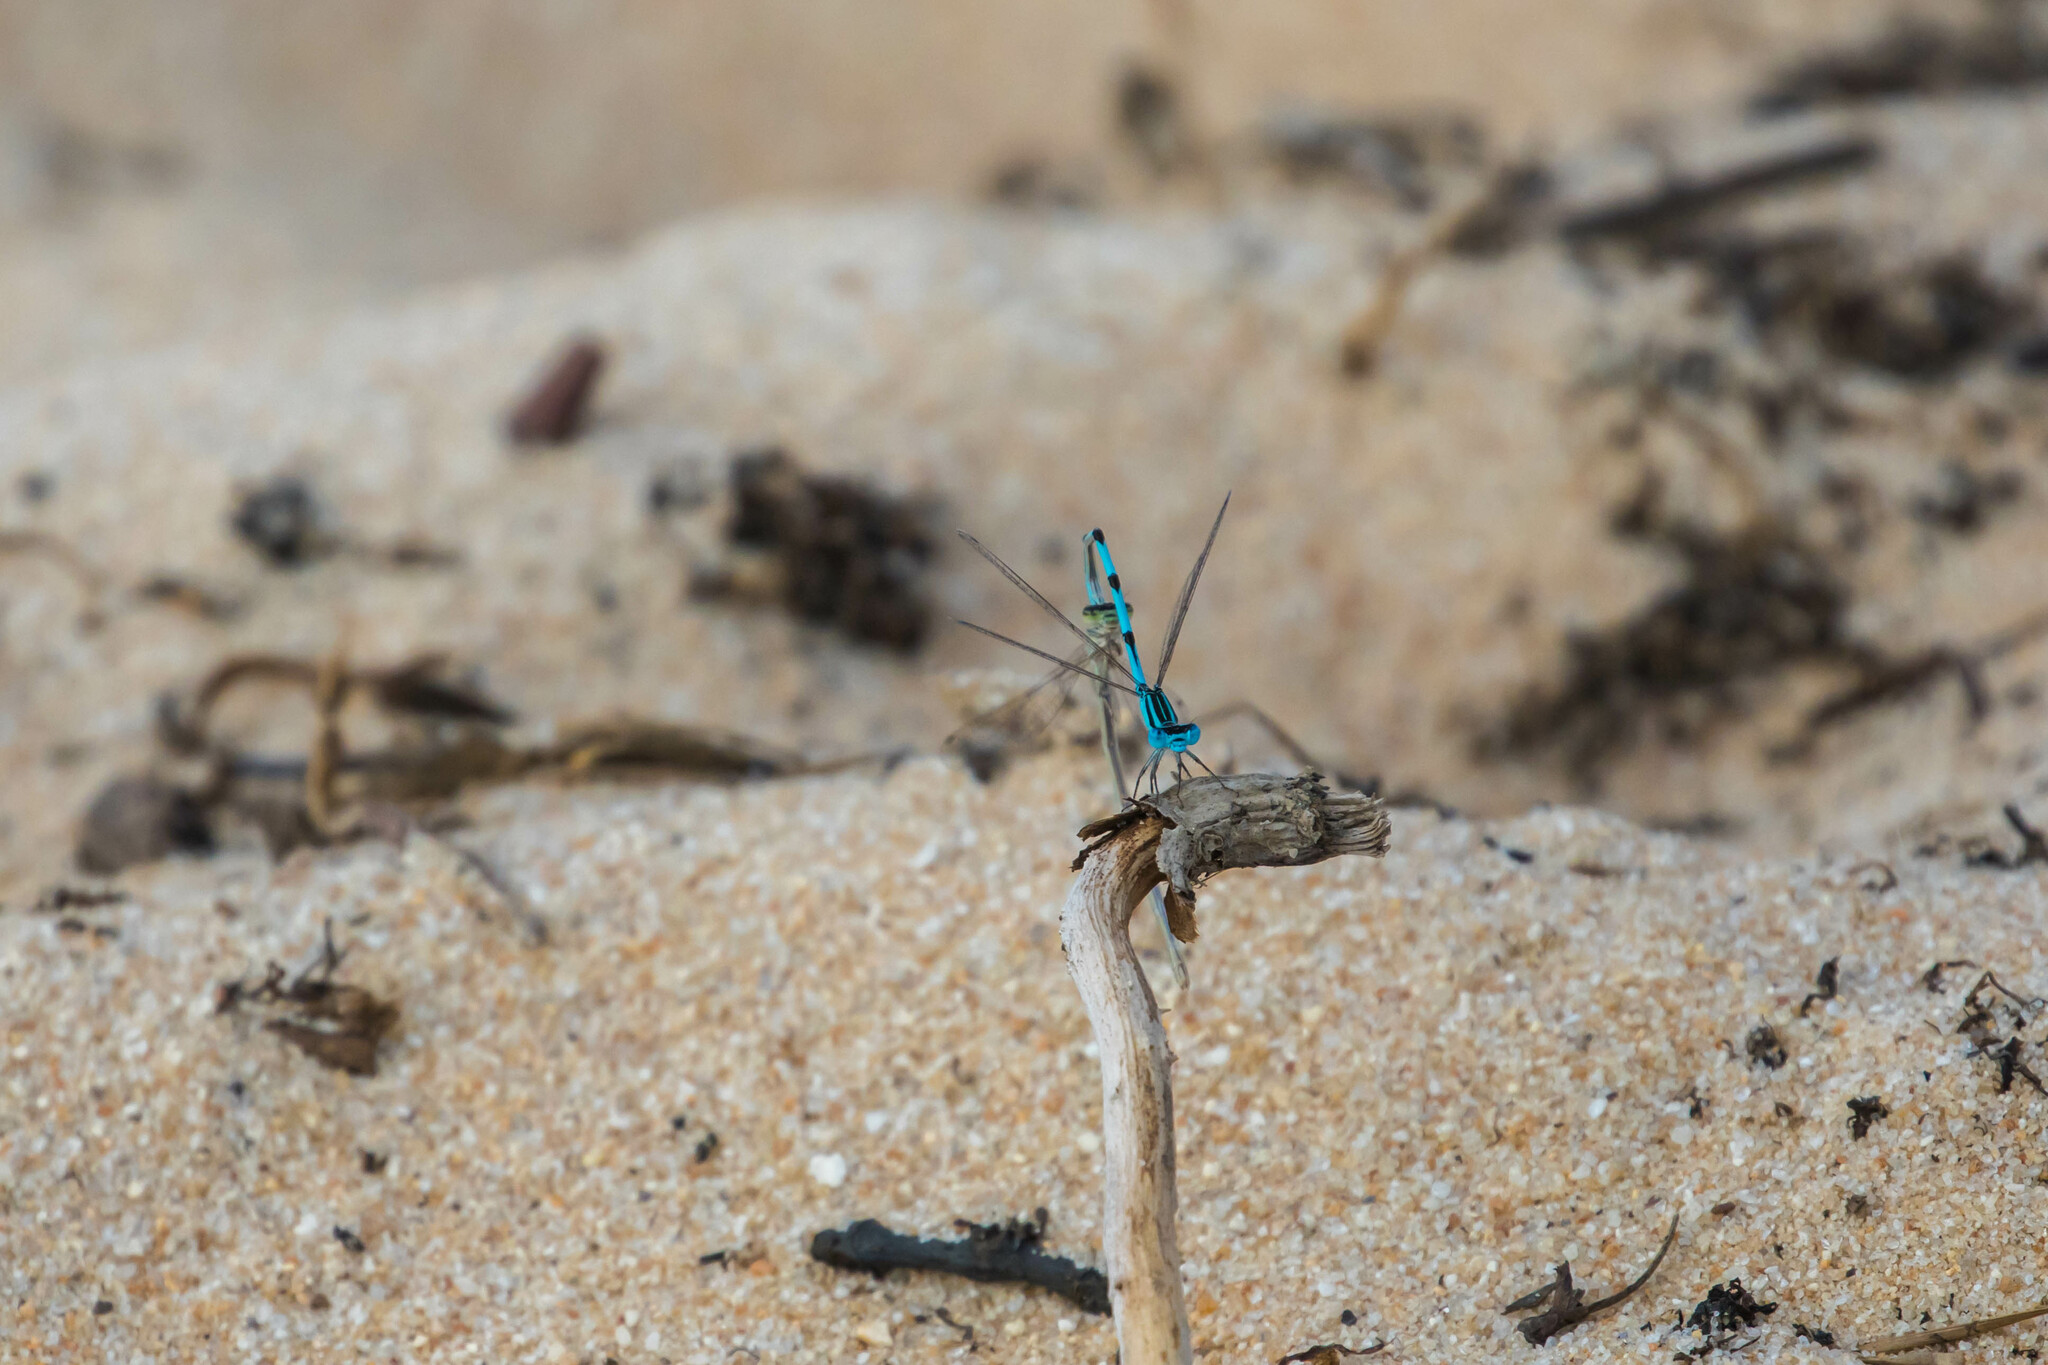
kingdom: Animalia
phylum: Arthropoda
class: Insecta
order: Odonata
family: Coenagrionidae
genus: Enallagma
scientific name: Enallagma durum
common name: Big bluet
